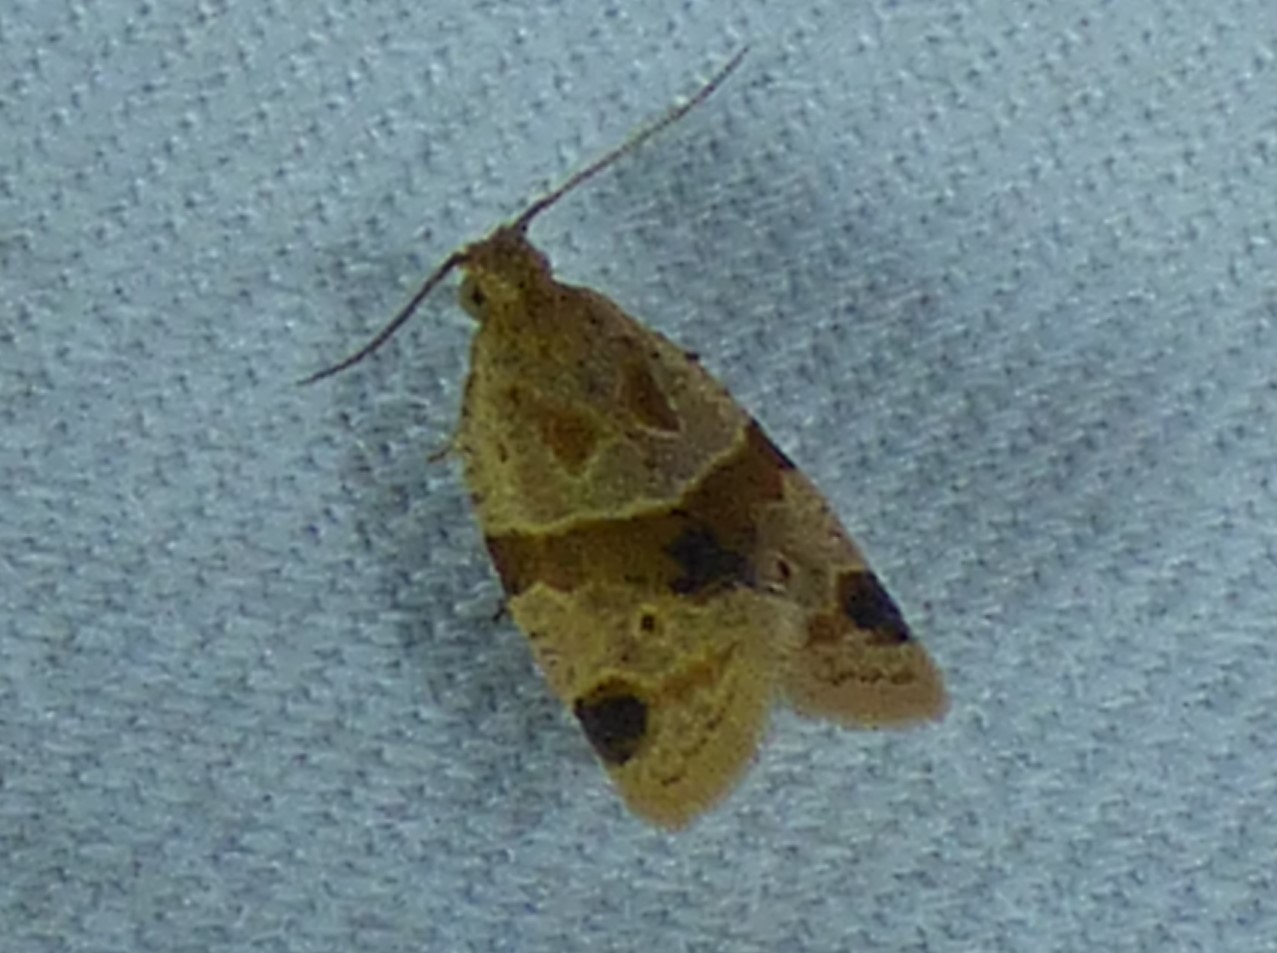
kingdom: Animalia
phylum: Arthropoda
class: Insecta
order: Lepidoptera
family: Tortricidae
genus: Clepsis
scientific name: Clepsis peritana
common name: Garden tortrix
